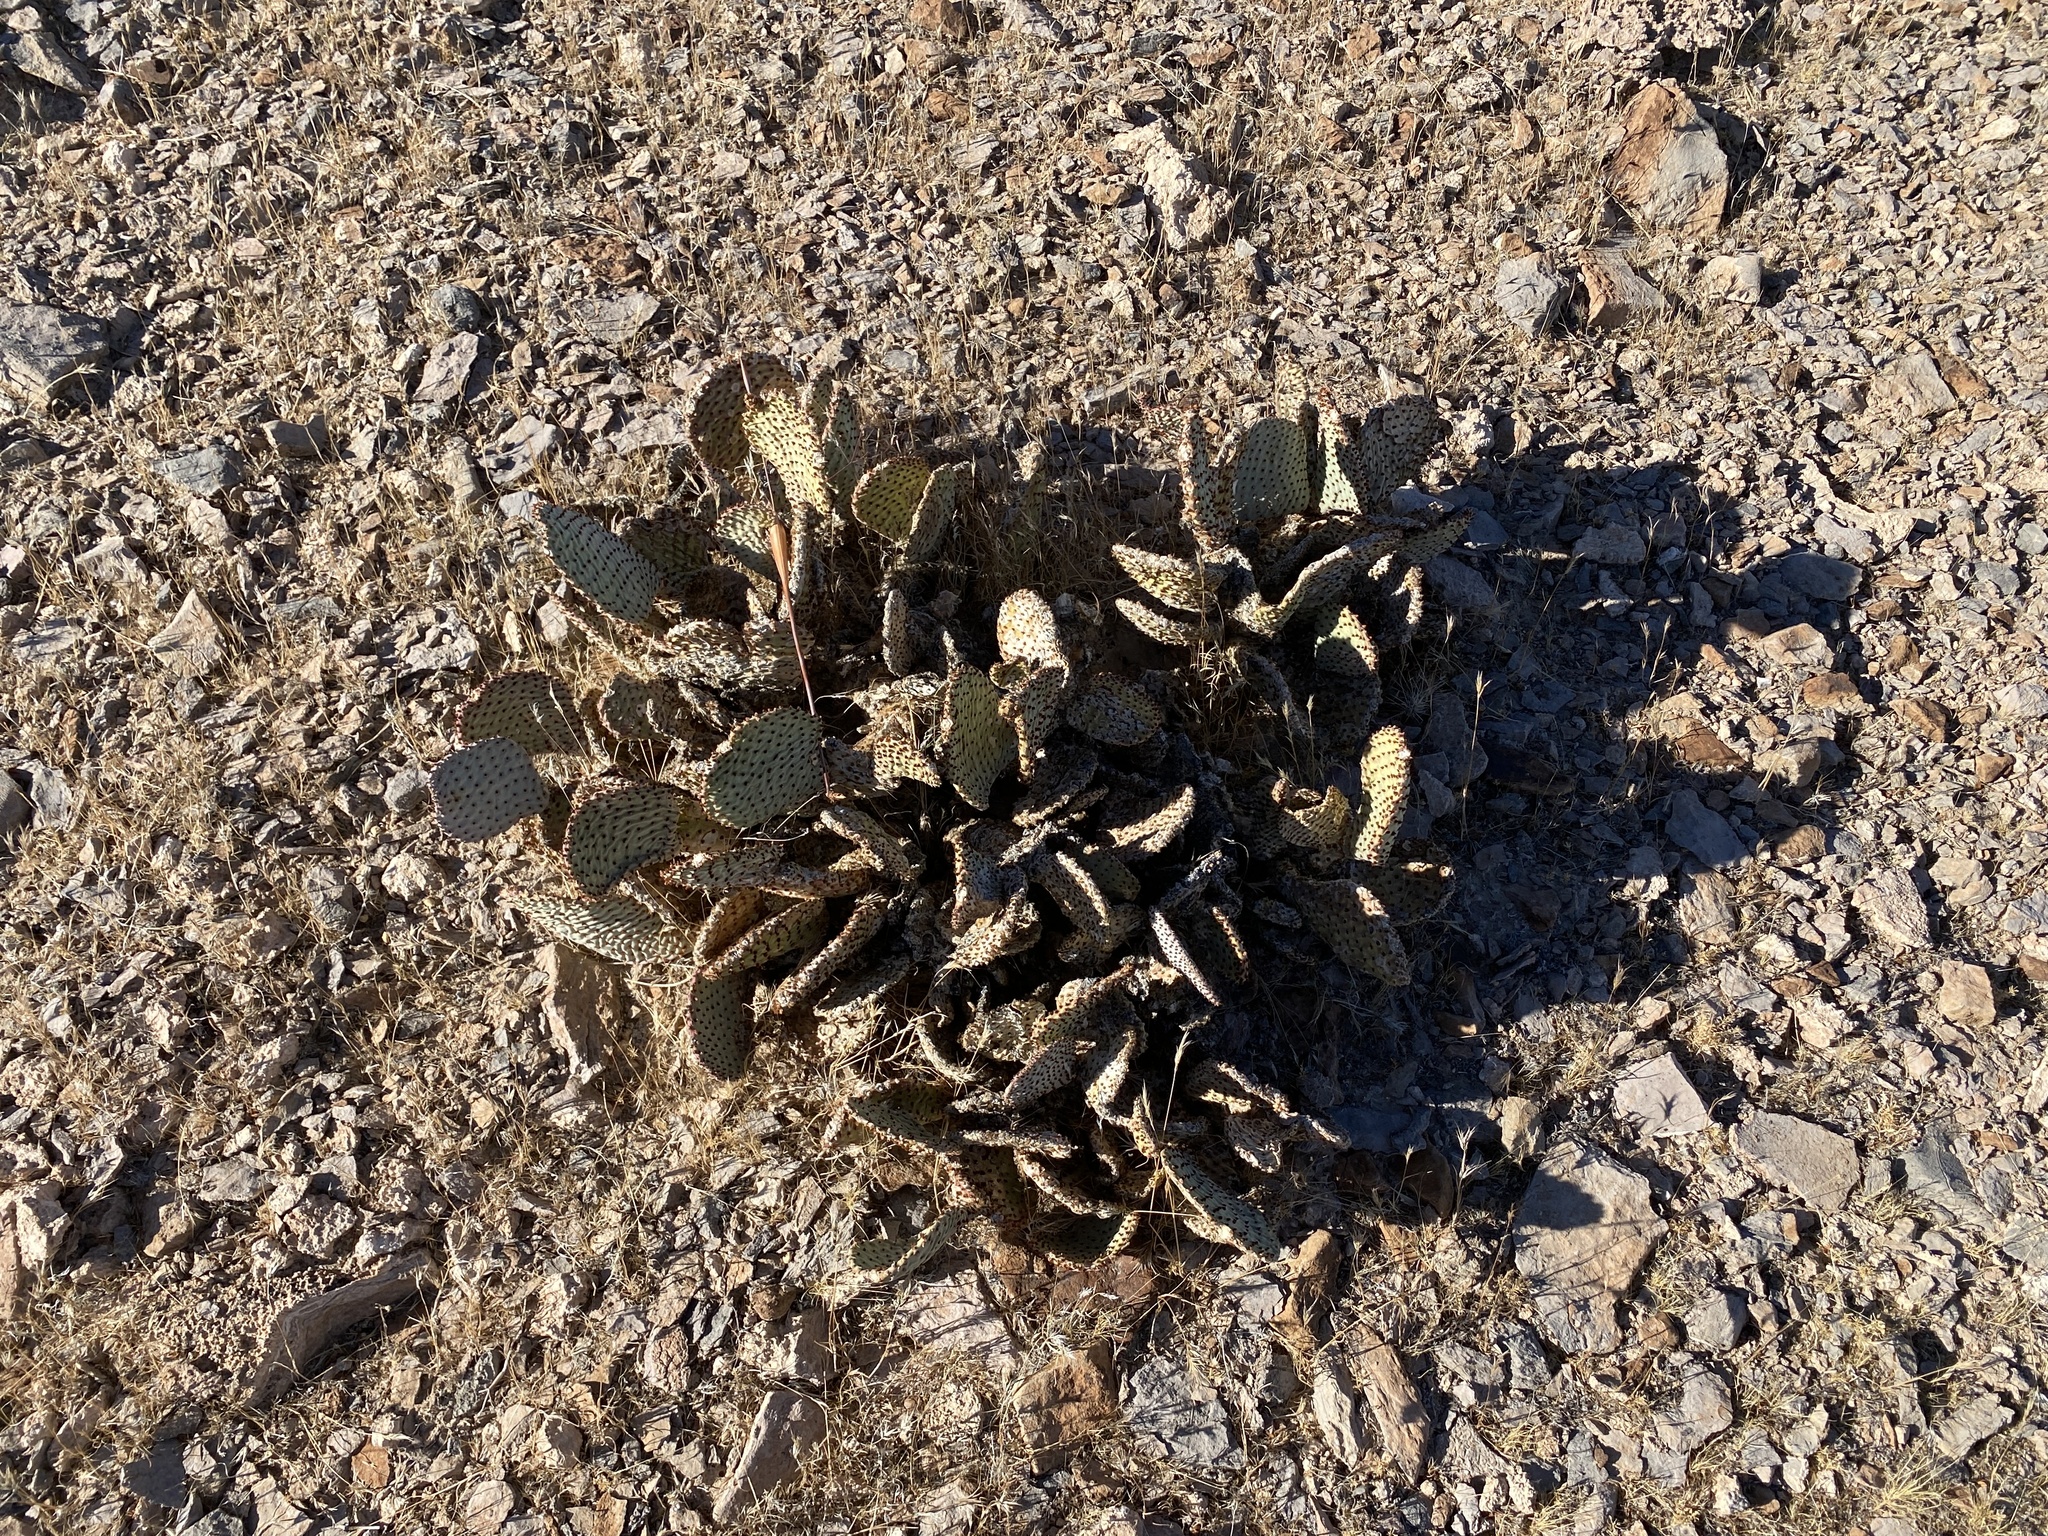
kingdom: Plantae
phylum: Tracheophyta
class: Magnoliopsida
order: Caryophyllales
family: Cactaceae
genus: Opuntia
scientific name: Opuntia basilaris
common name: Beavertail prickly-pear
